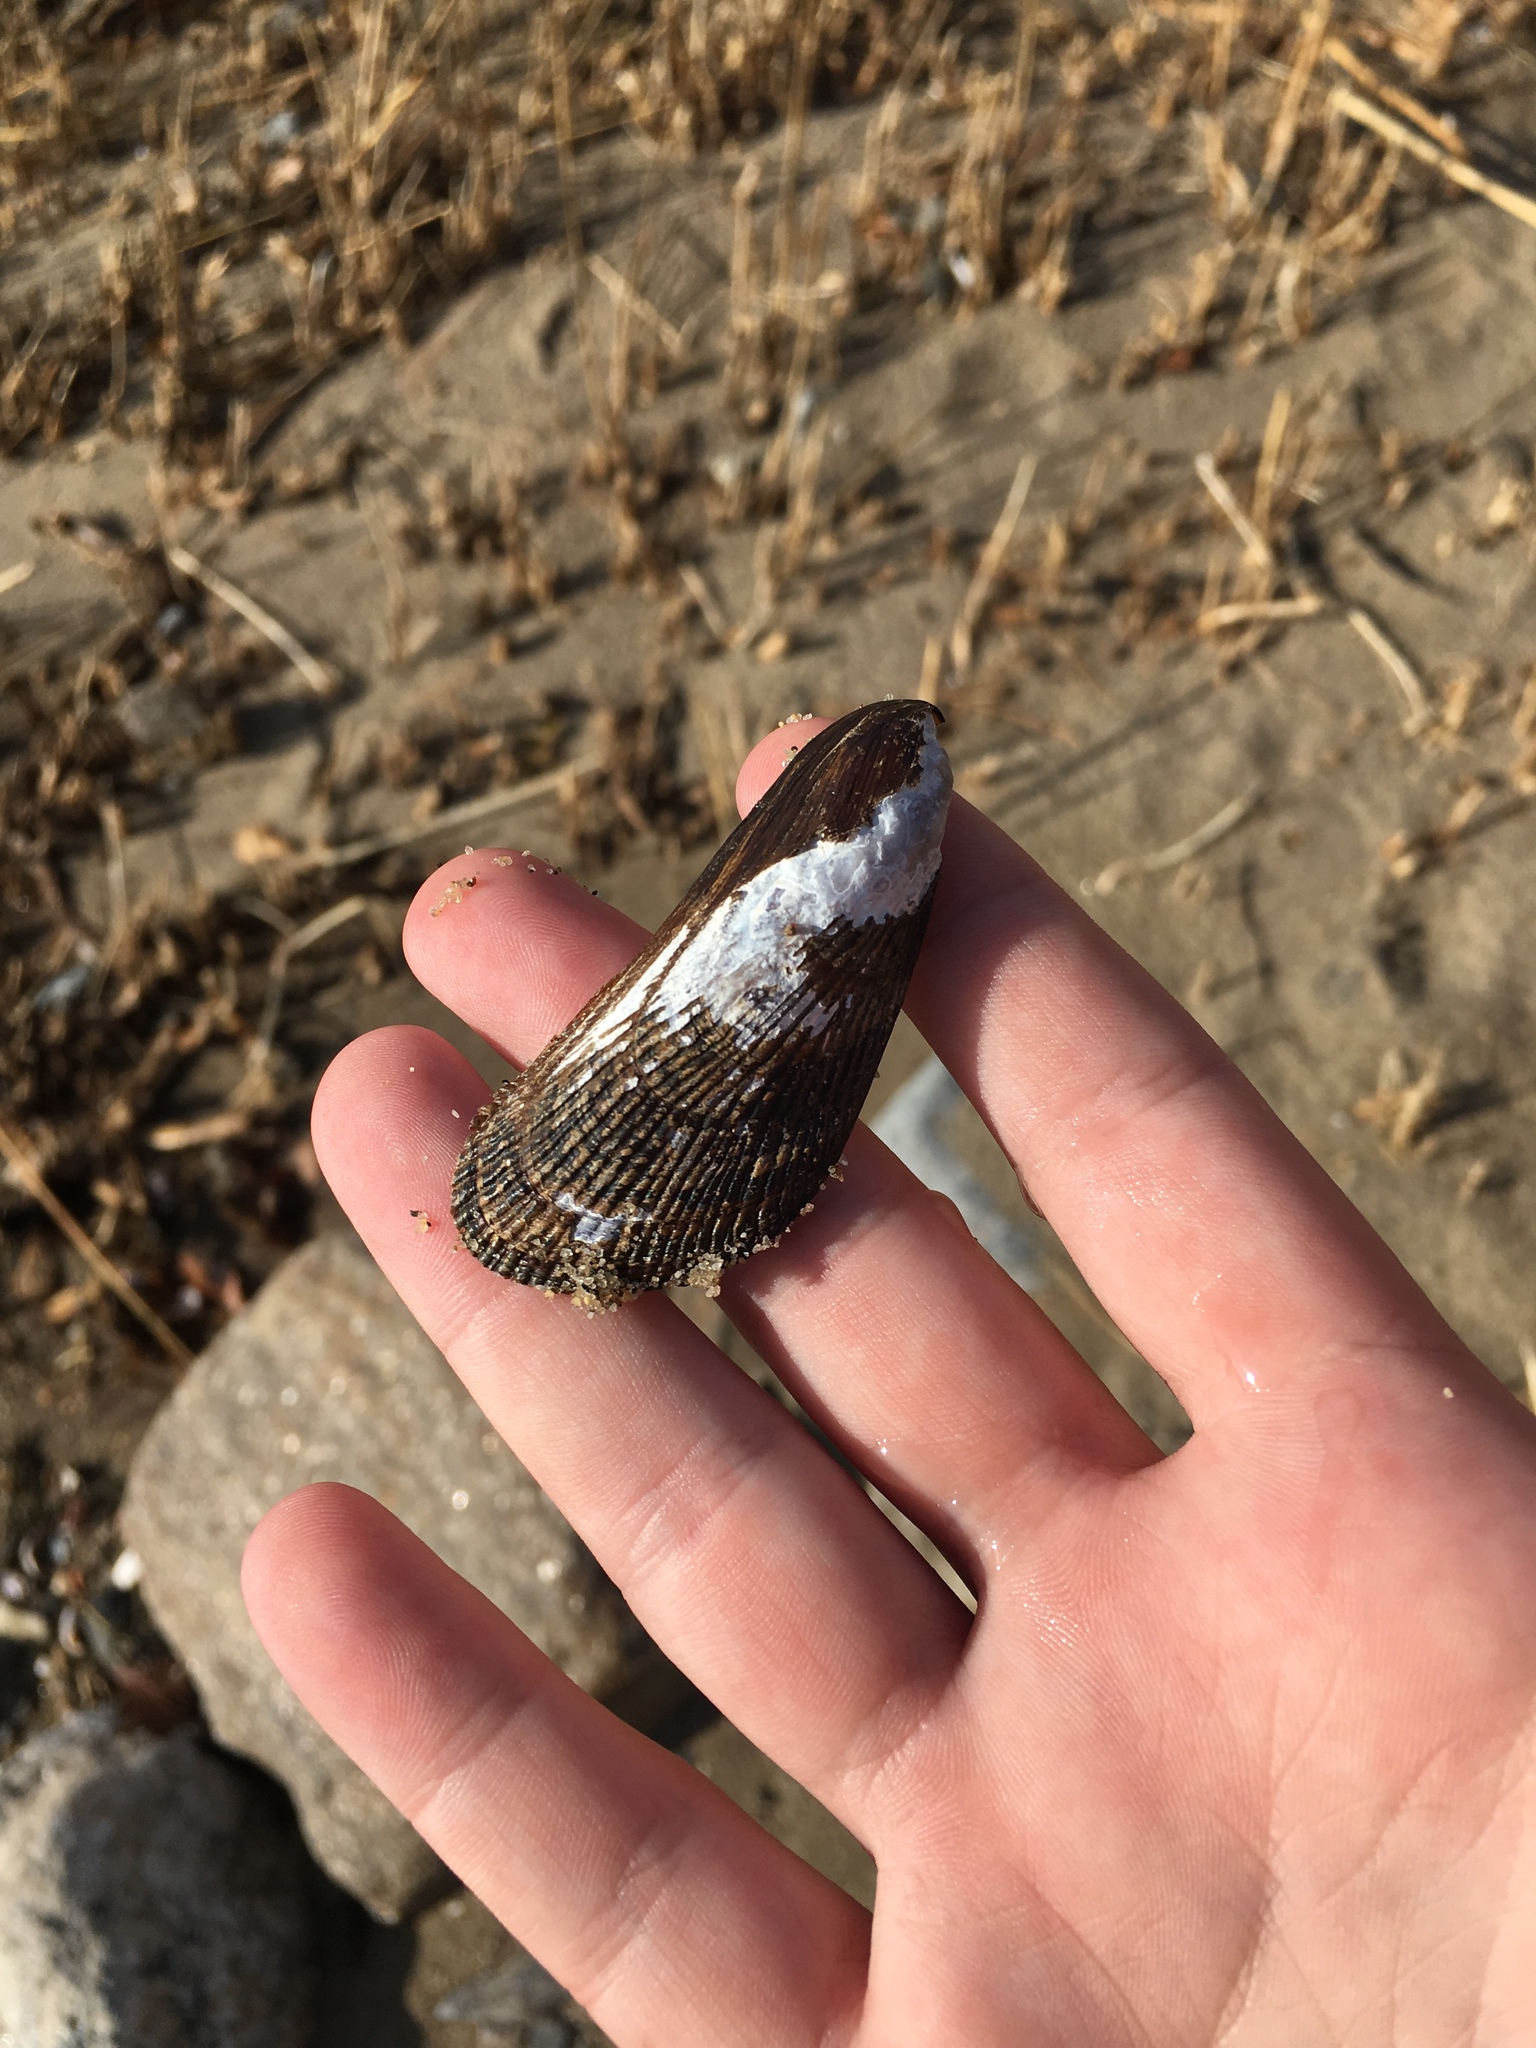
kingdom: Animalia
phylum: Mollusca
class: Bivalvia
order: Mytilida
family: Mytilidae
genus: Geukensia
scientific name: Geukensia demissa
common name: Ribbed mussel
